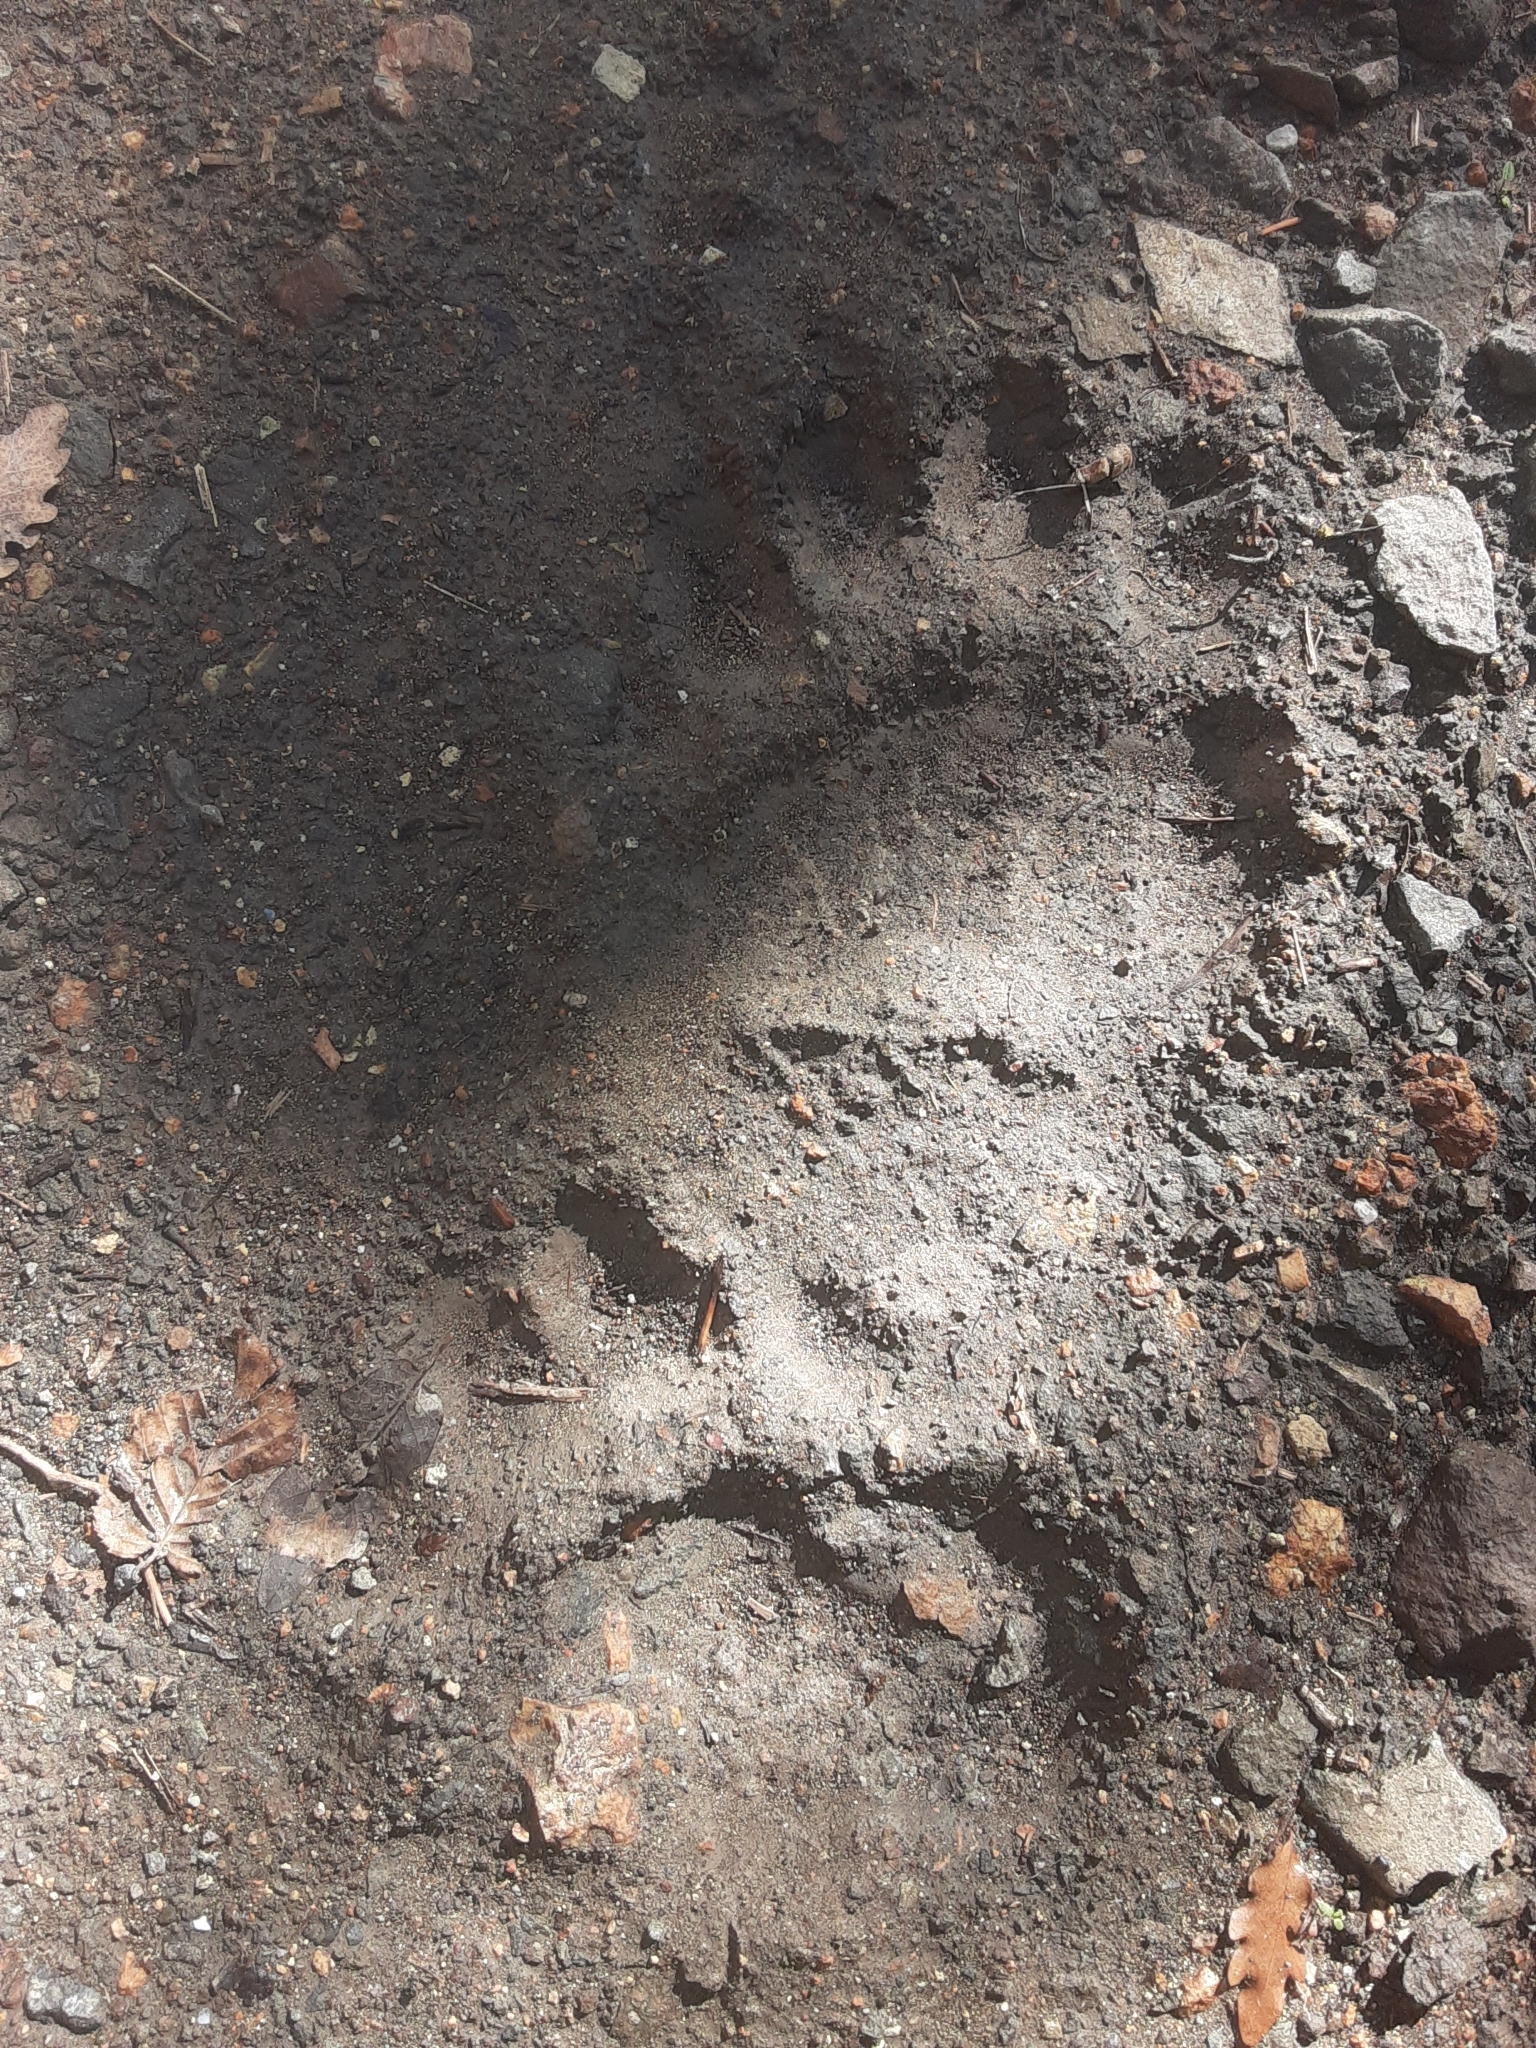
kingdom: Animalia
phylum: Chordata
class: Mammalia
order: Carnivora
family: Ursidae
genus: Ursus
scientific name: Ursus arctos
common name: Brown bear
